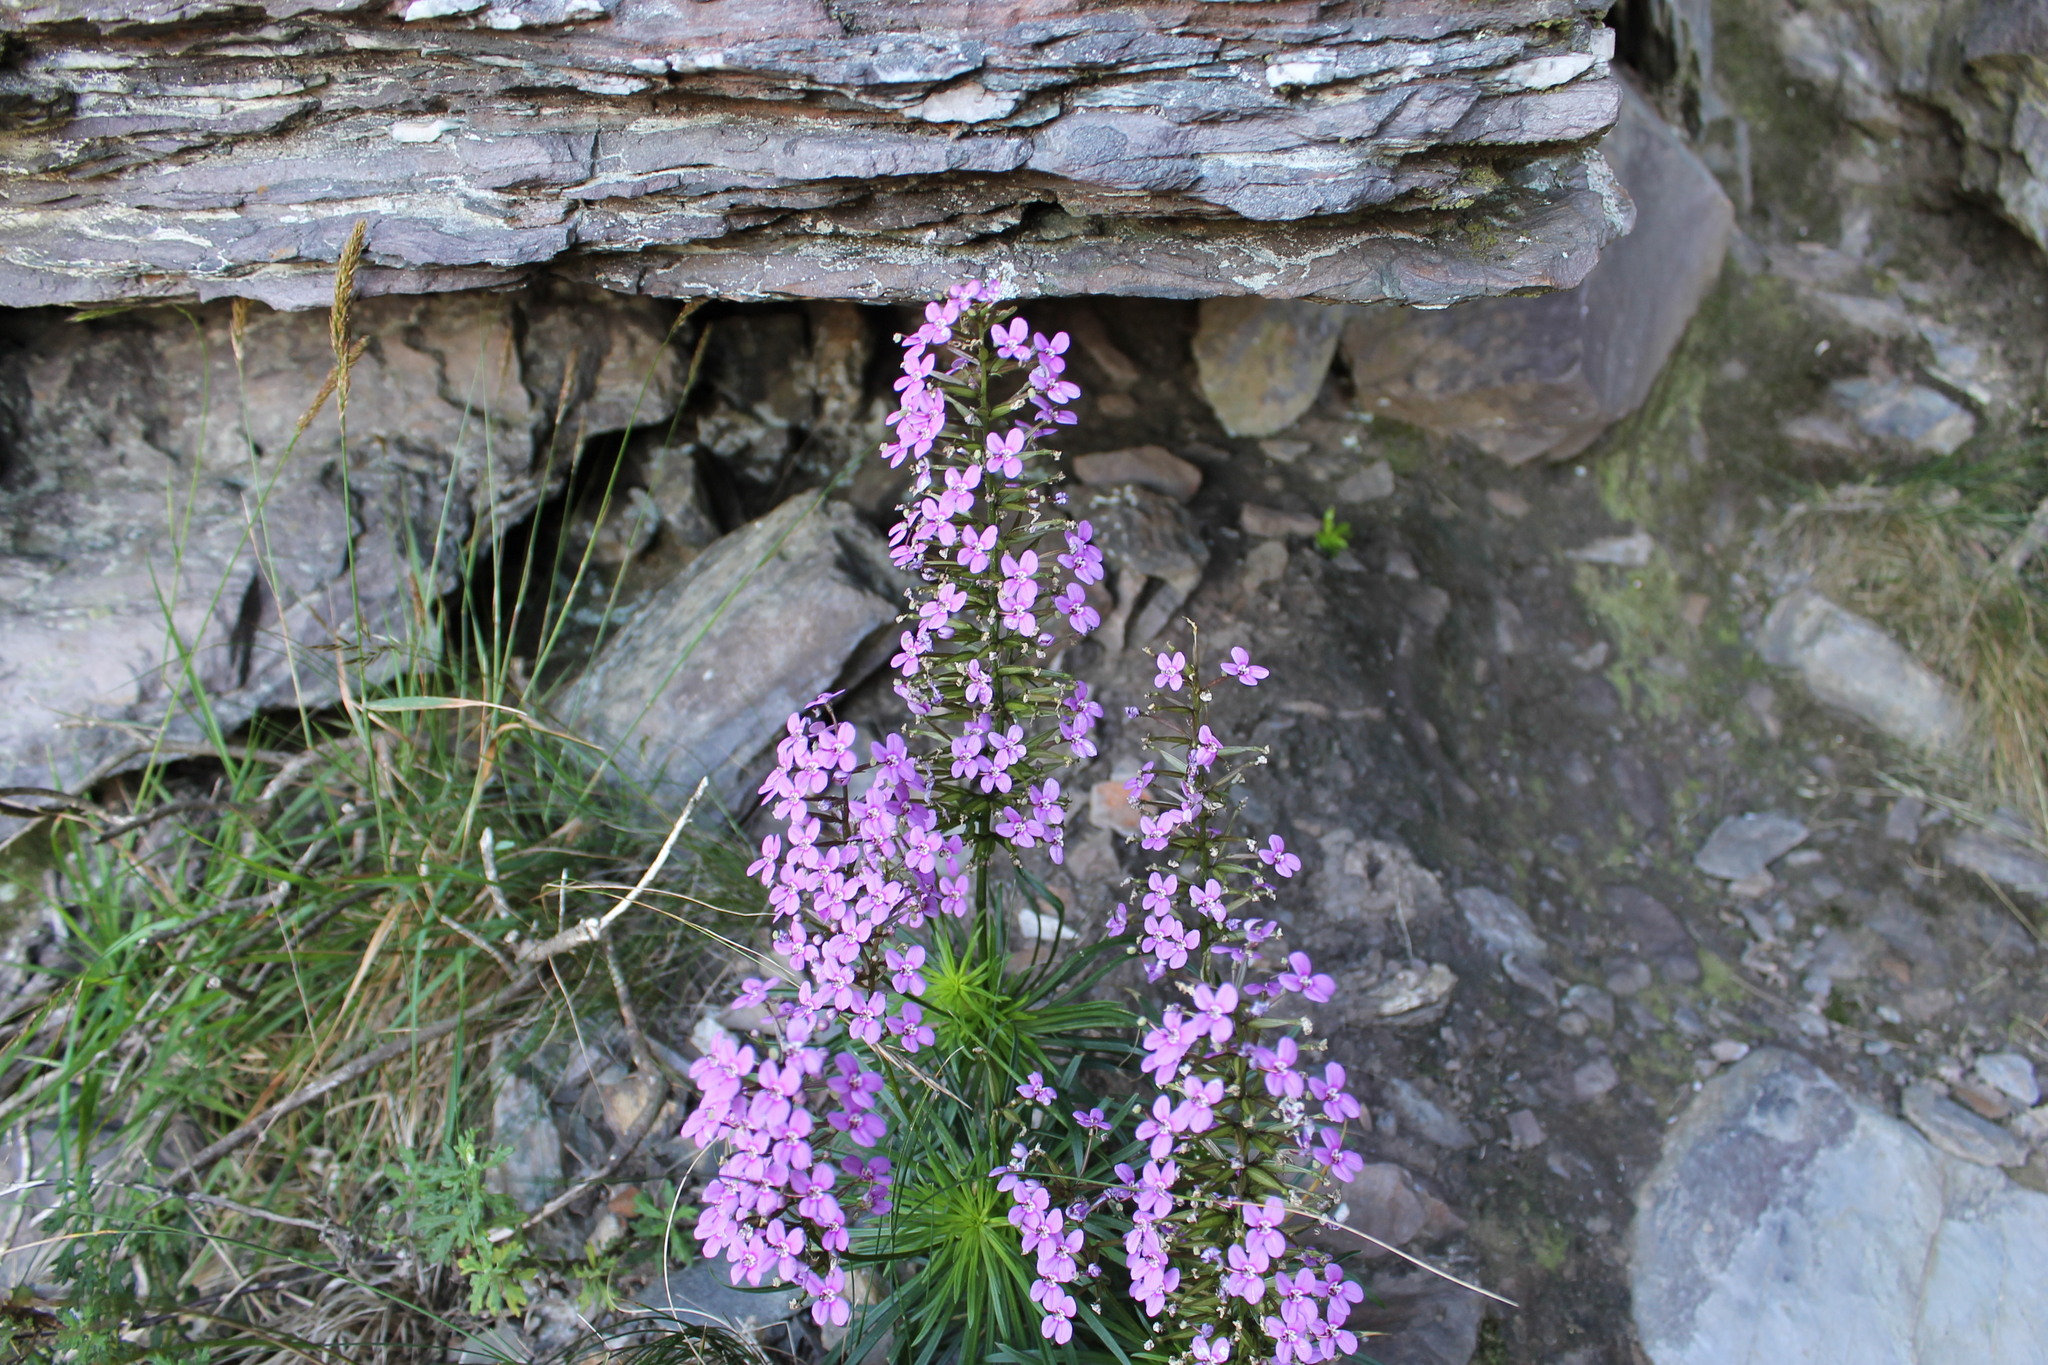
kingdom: Plantae
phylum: Tracheophyta
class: Magnoliopsida
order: Asterales
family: Stylidiaceae
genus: Stylidium
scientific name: Stylidium oreophilum
